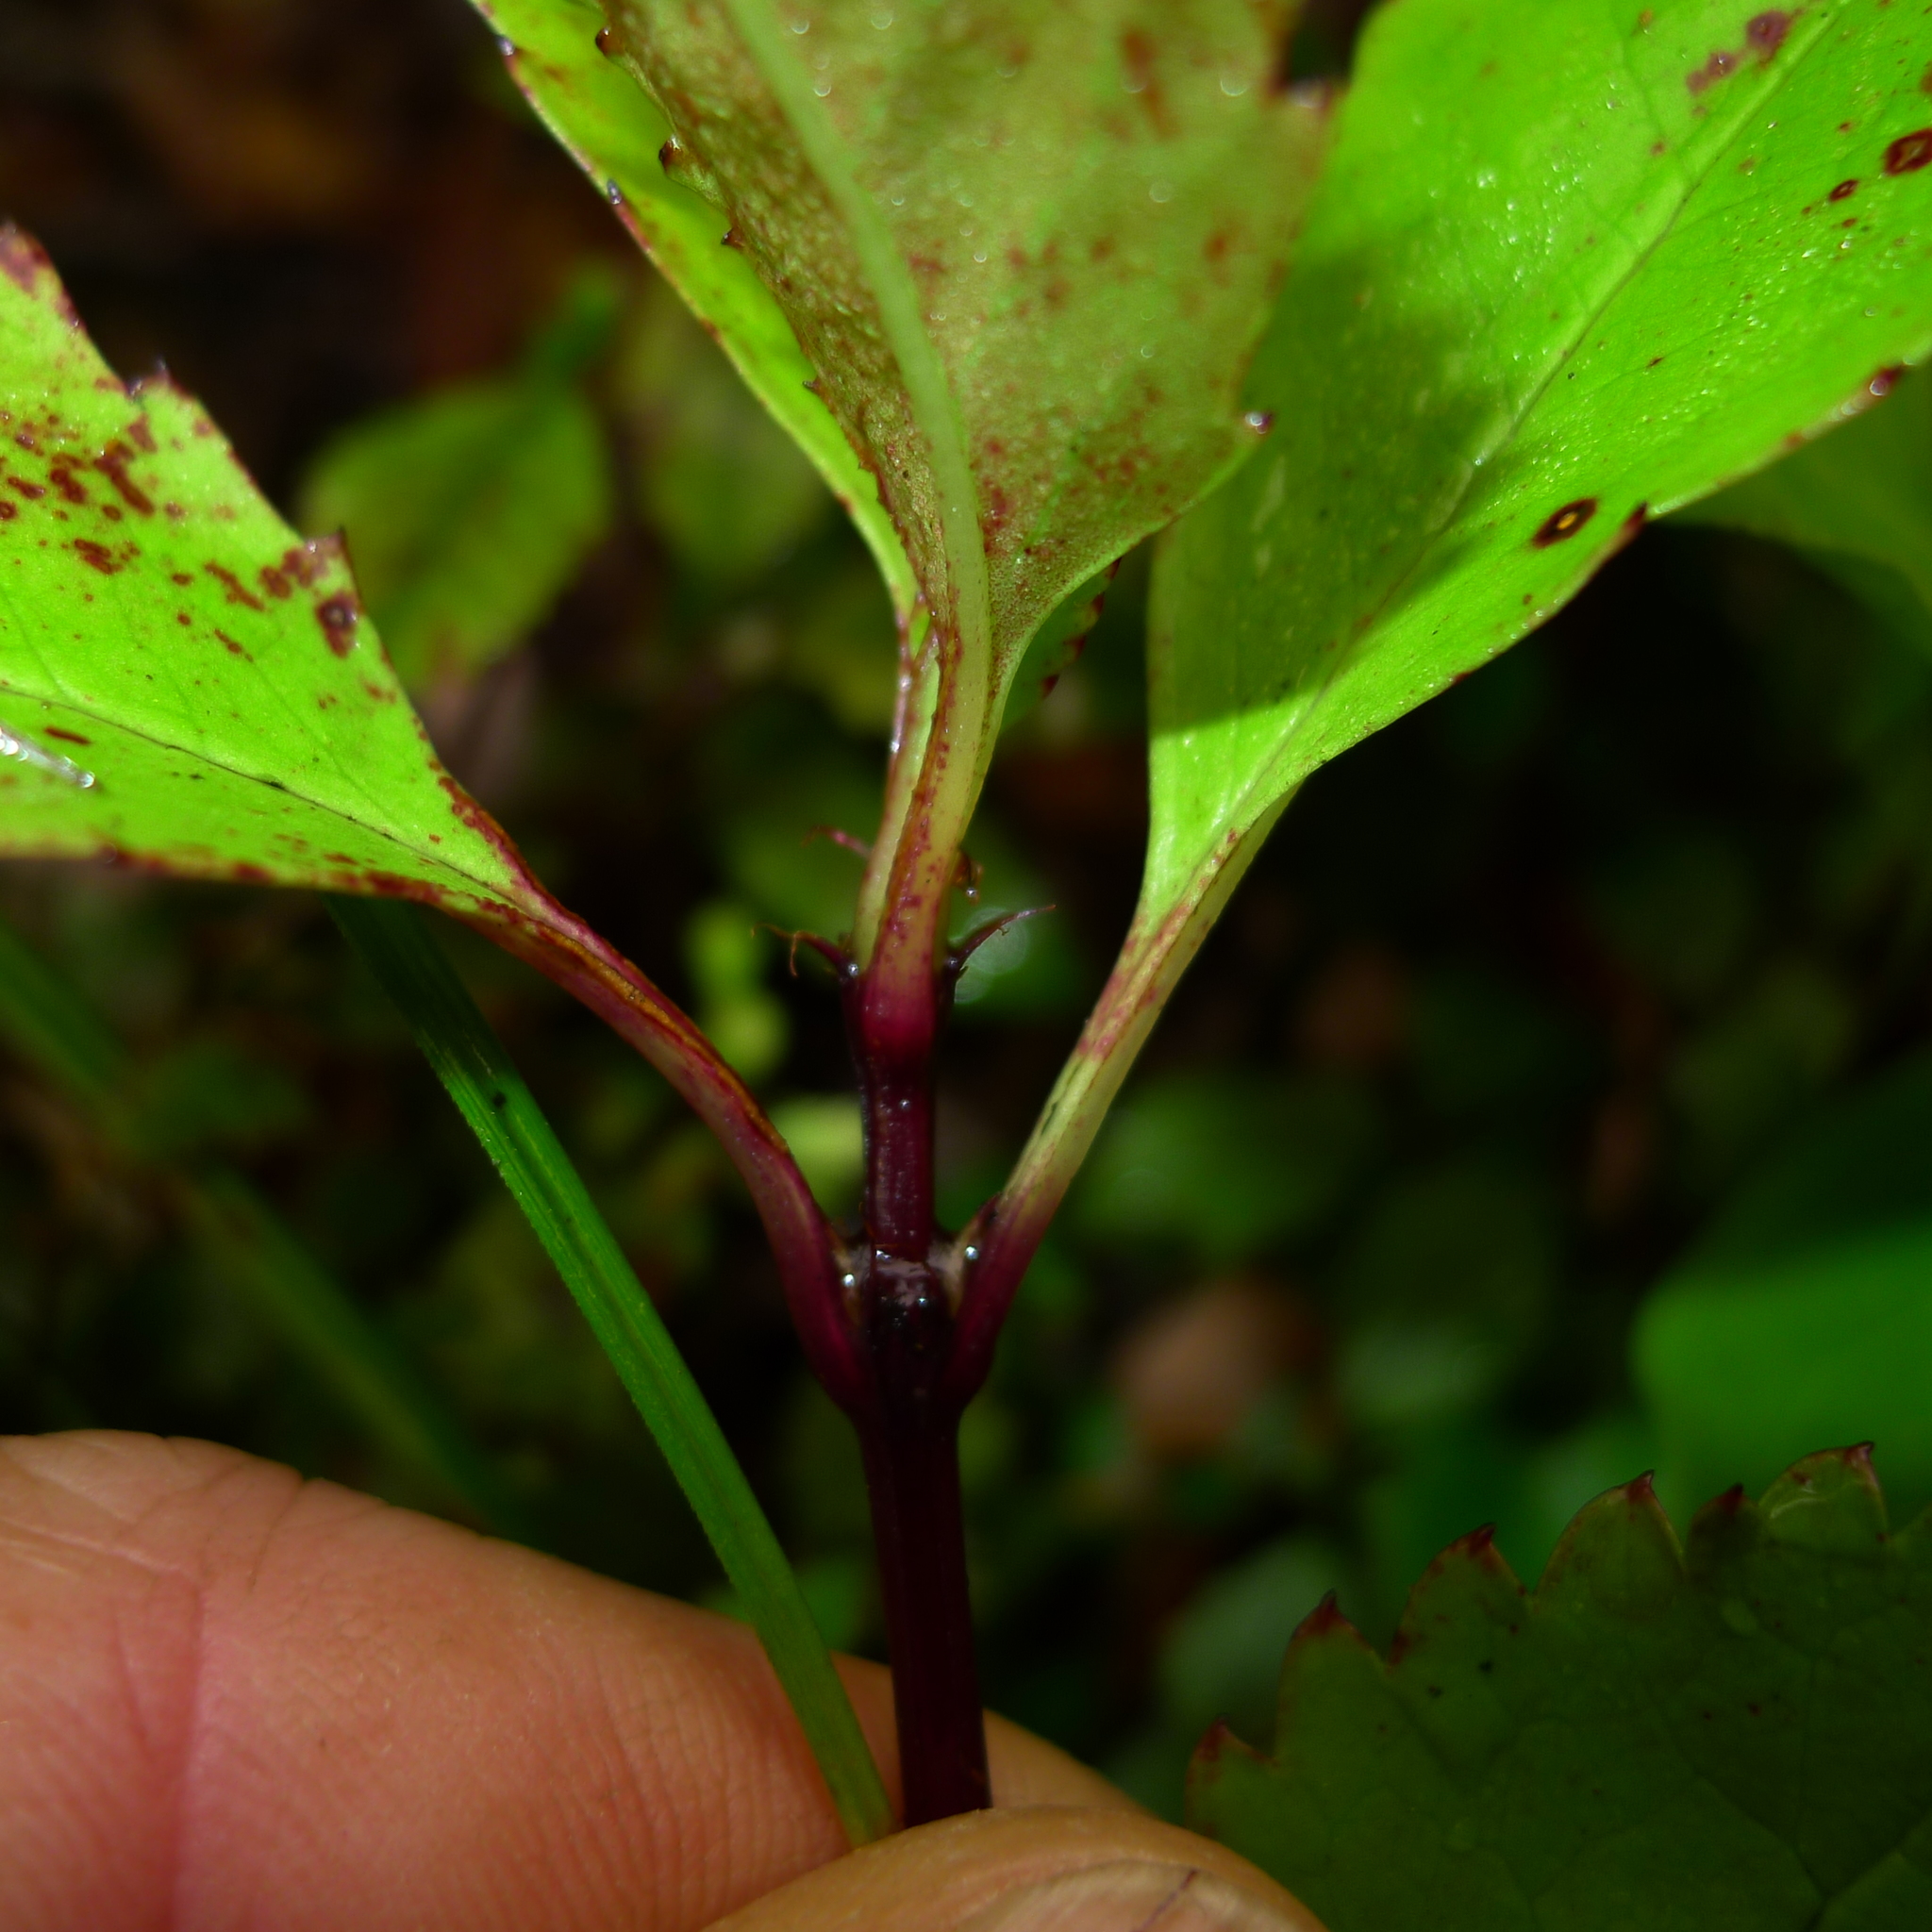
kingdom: Plantae
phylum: Tracheophyta
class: Magnoliopsida
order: Chloranthales
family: Chloranthaceae
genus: Ascarina
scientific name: Ascarina lucida
